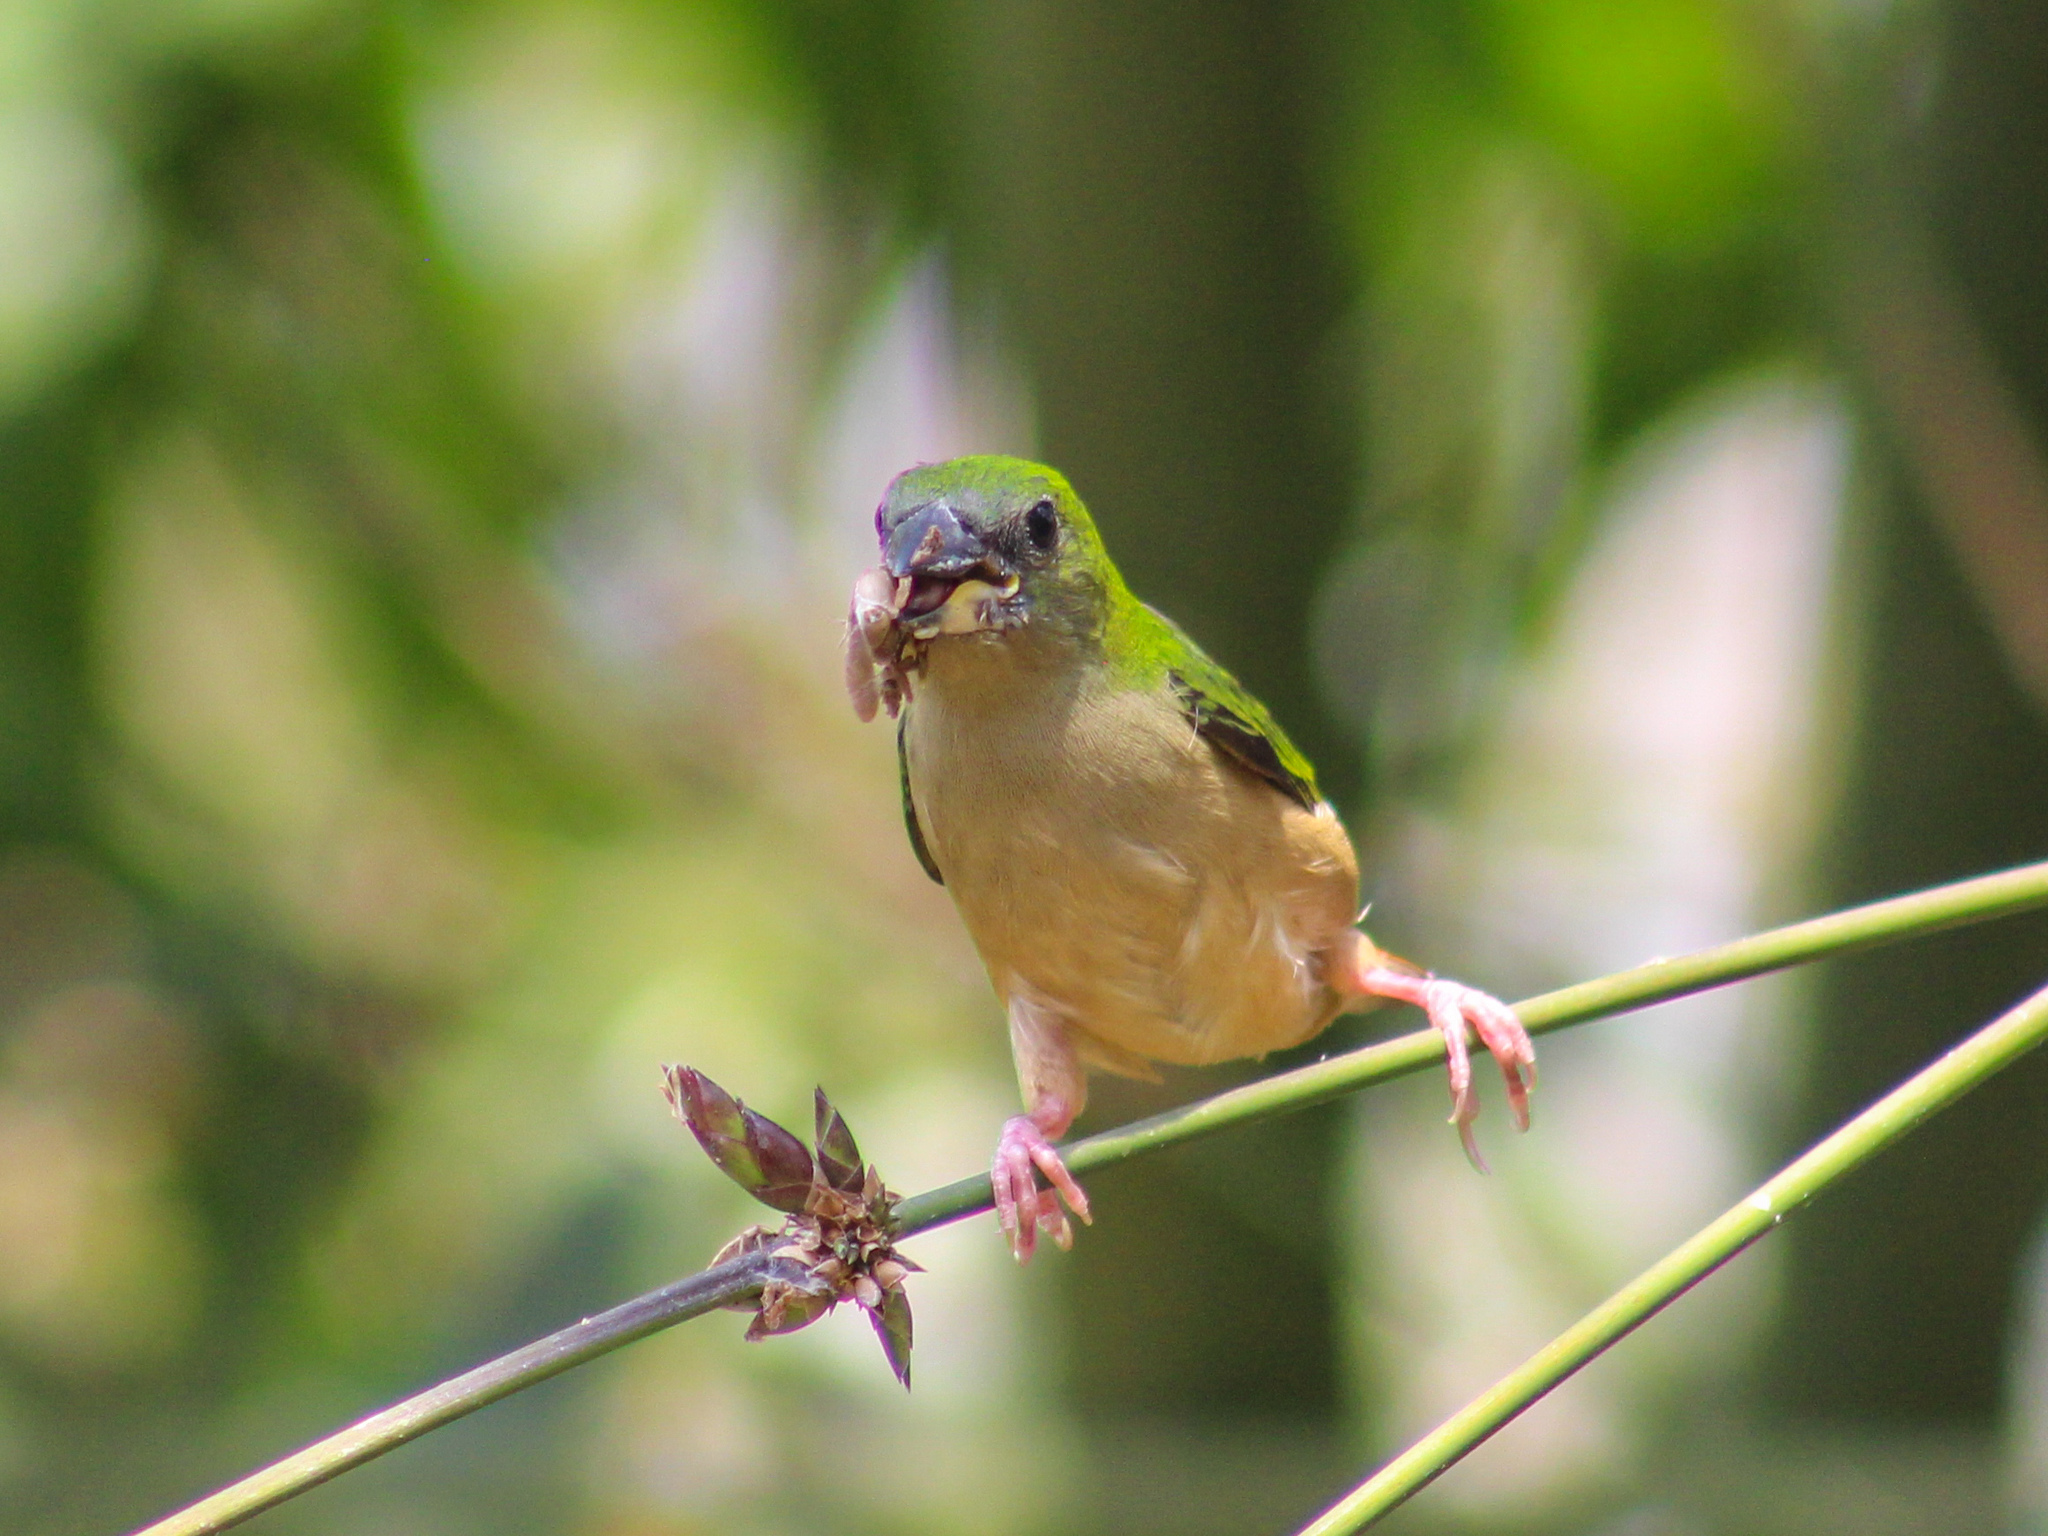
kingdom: Animalia
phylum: Chordata
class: Aves
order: Passeriformes
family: Estrildidae
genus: Erythrura
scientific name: Erythrura prasina
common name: Pin-tailed parrotfinch
